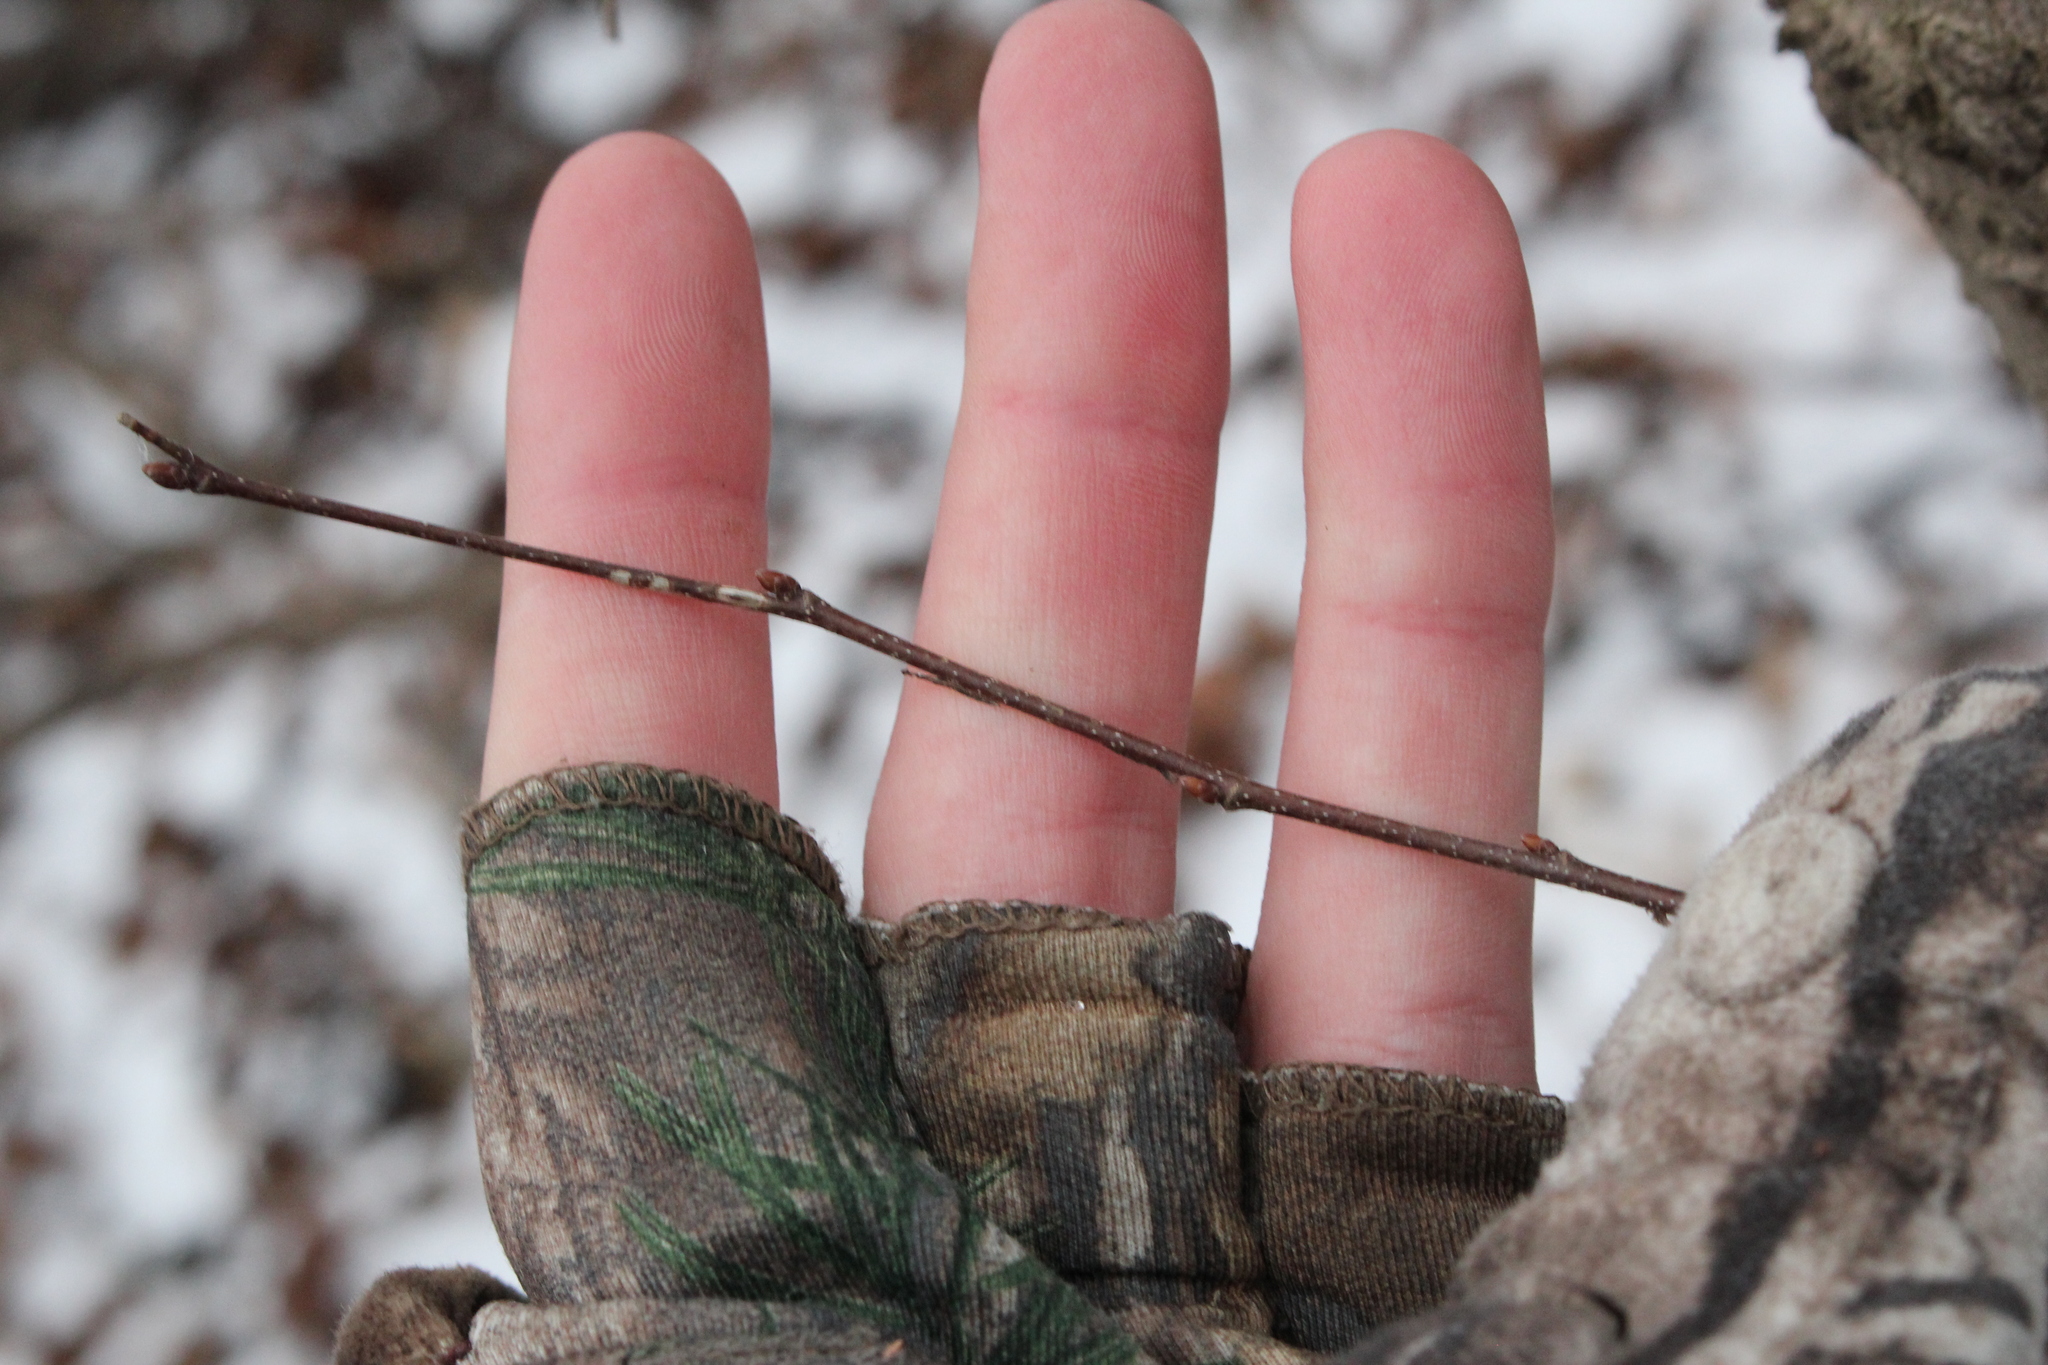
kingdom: Plantae
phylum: Tracheophyta
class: Magnoliopsida
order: Fagales
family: Betulaceae
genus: Carpinus
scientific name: Carpinus caroliniana
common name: American hornbeam
